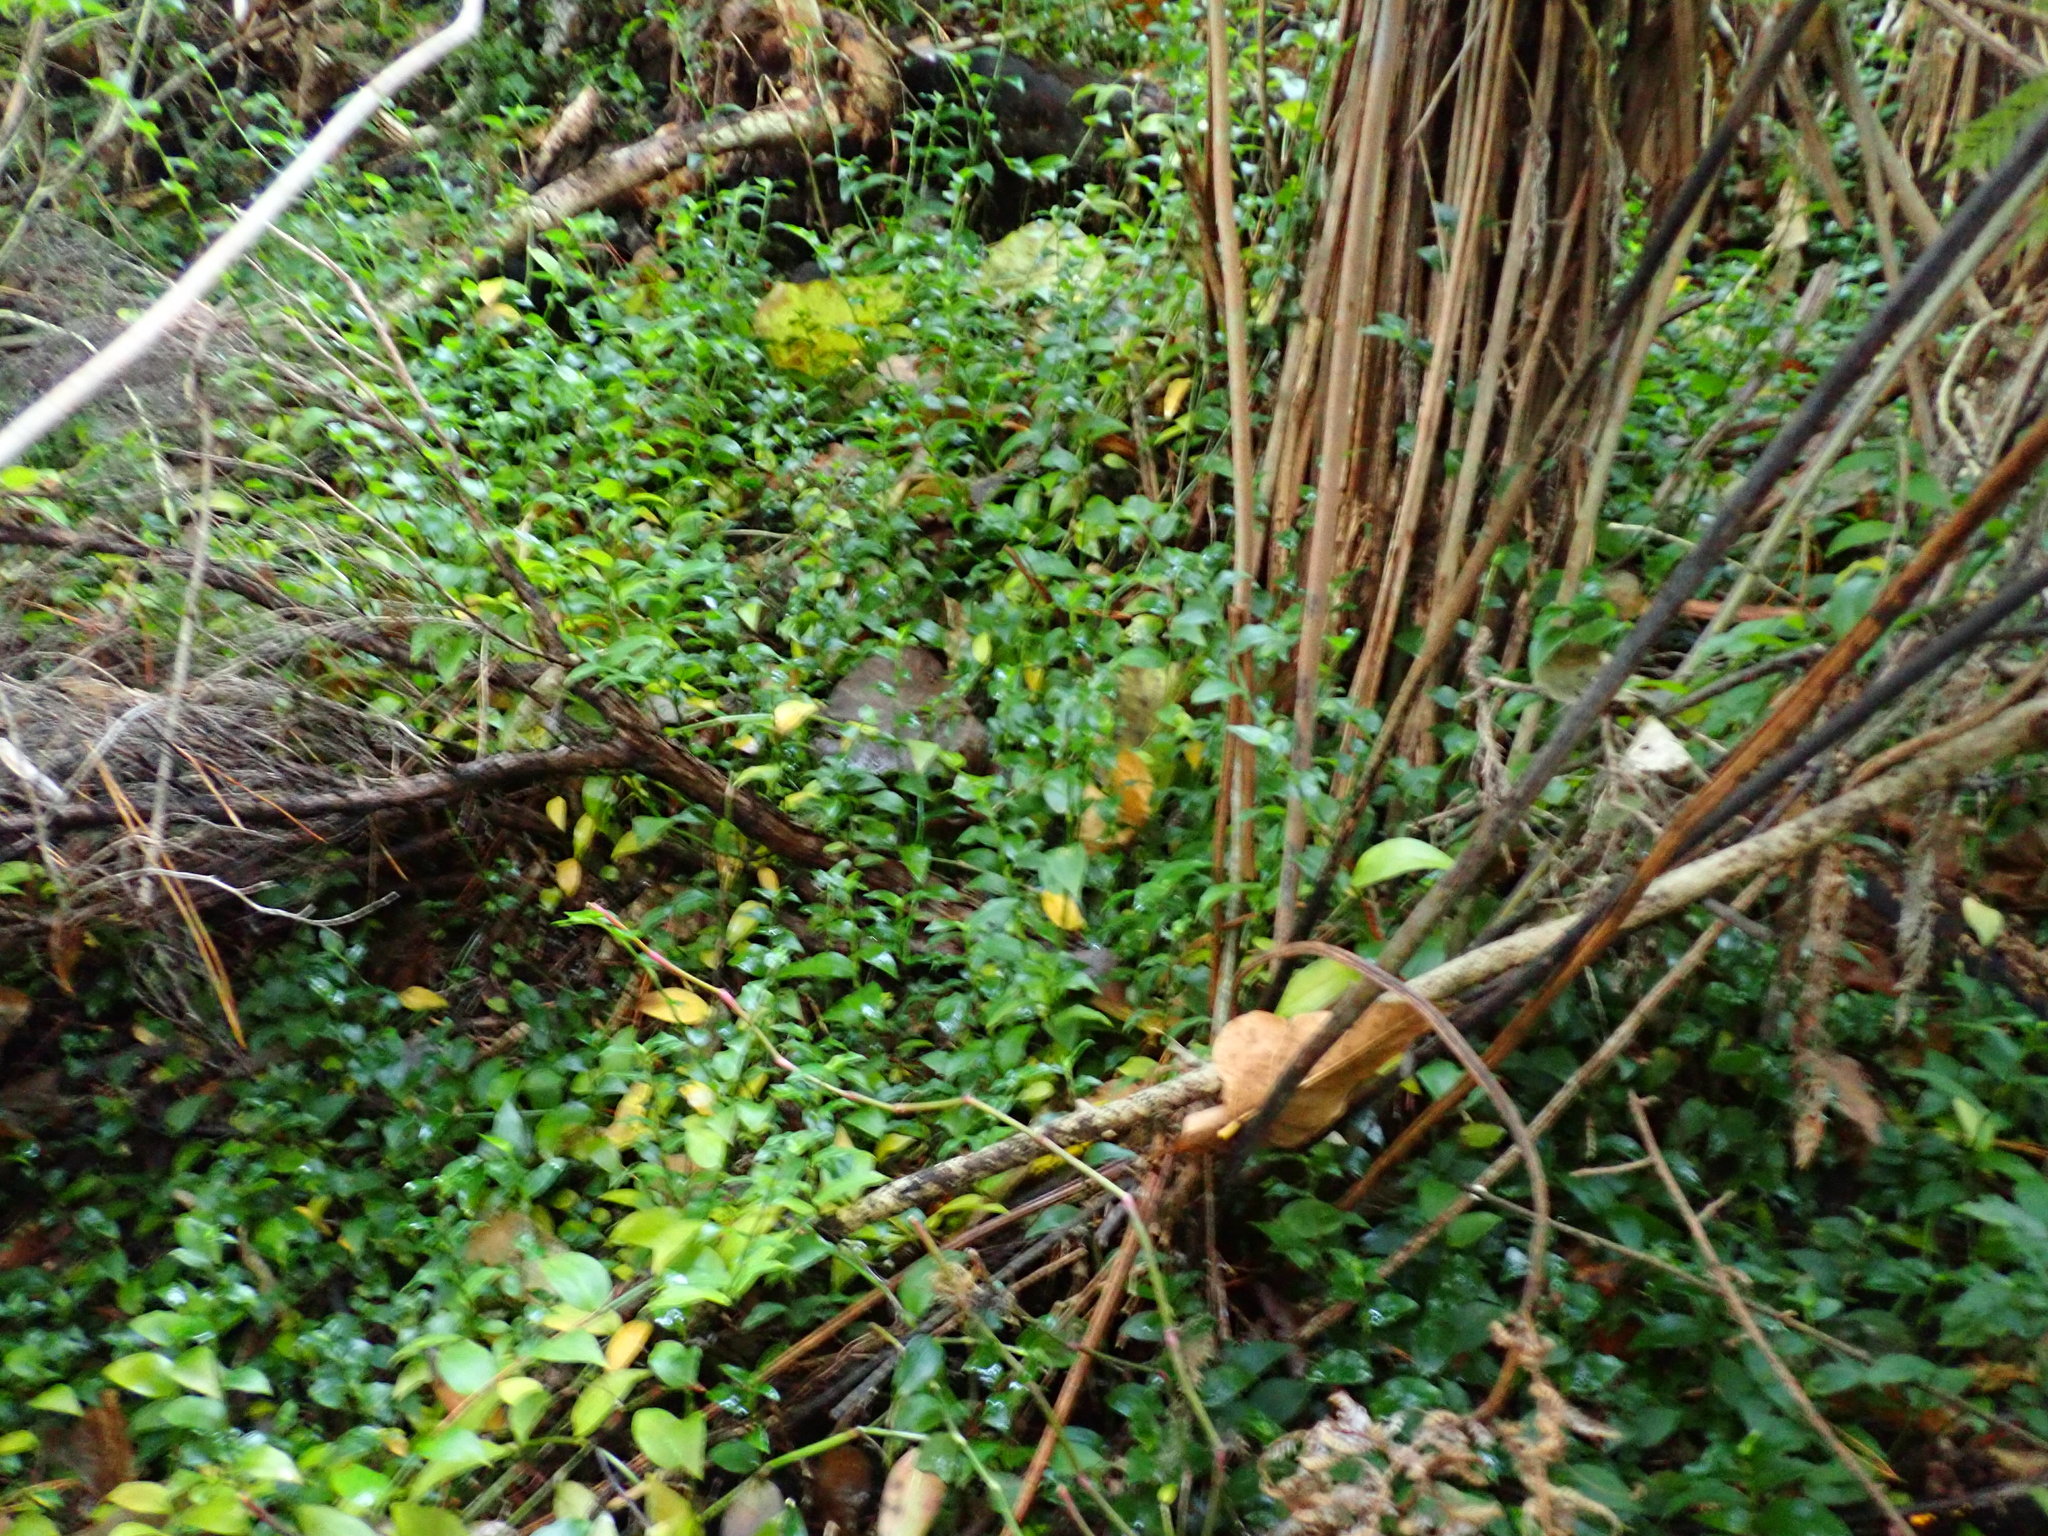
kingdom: Plantae
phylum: Tracheophyta
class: Liliopsida
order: Commelinales
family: Commelinaceae
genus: Tradescantia
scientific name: Tradescantia fluminensis
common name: Wandering-jew
